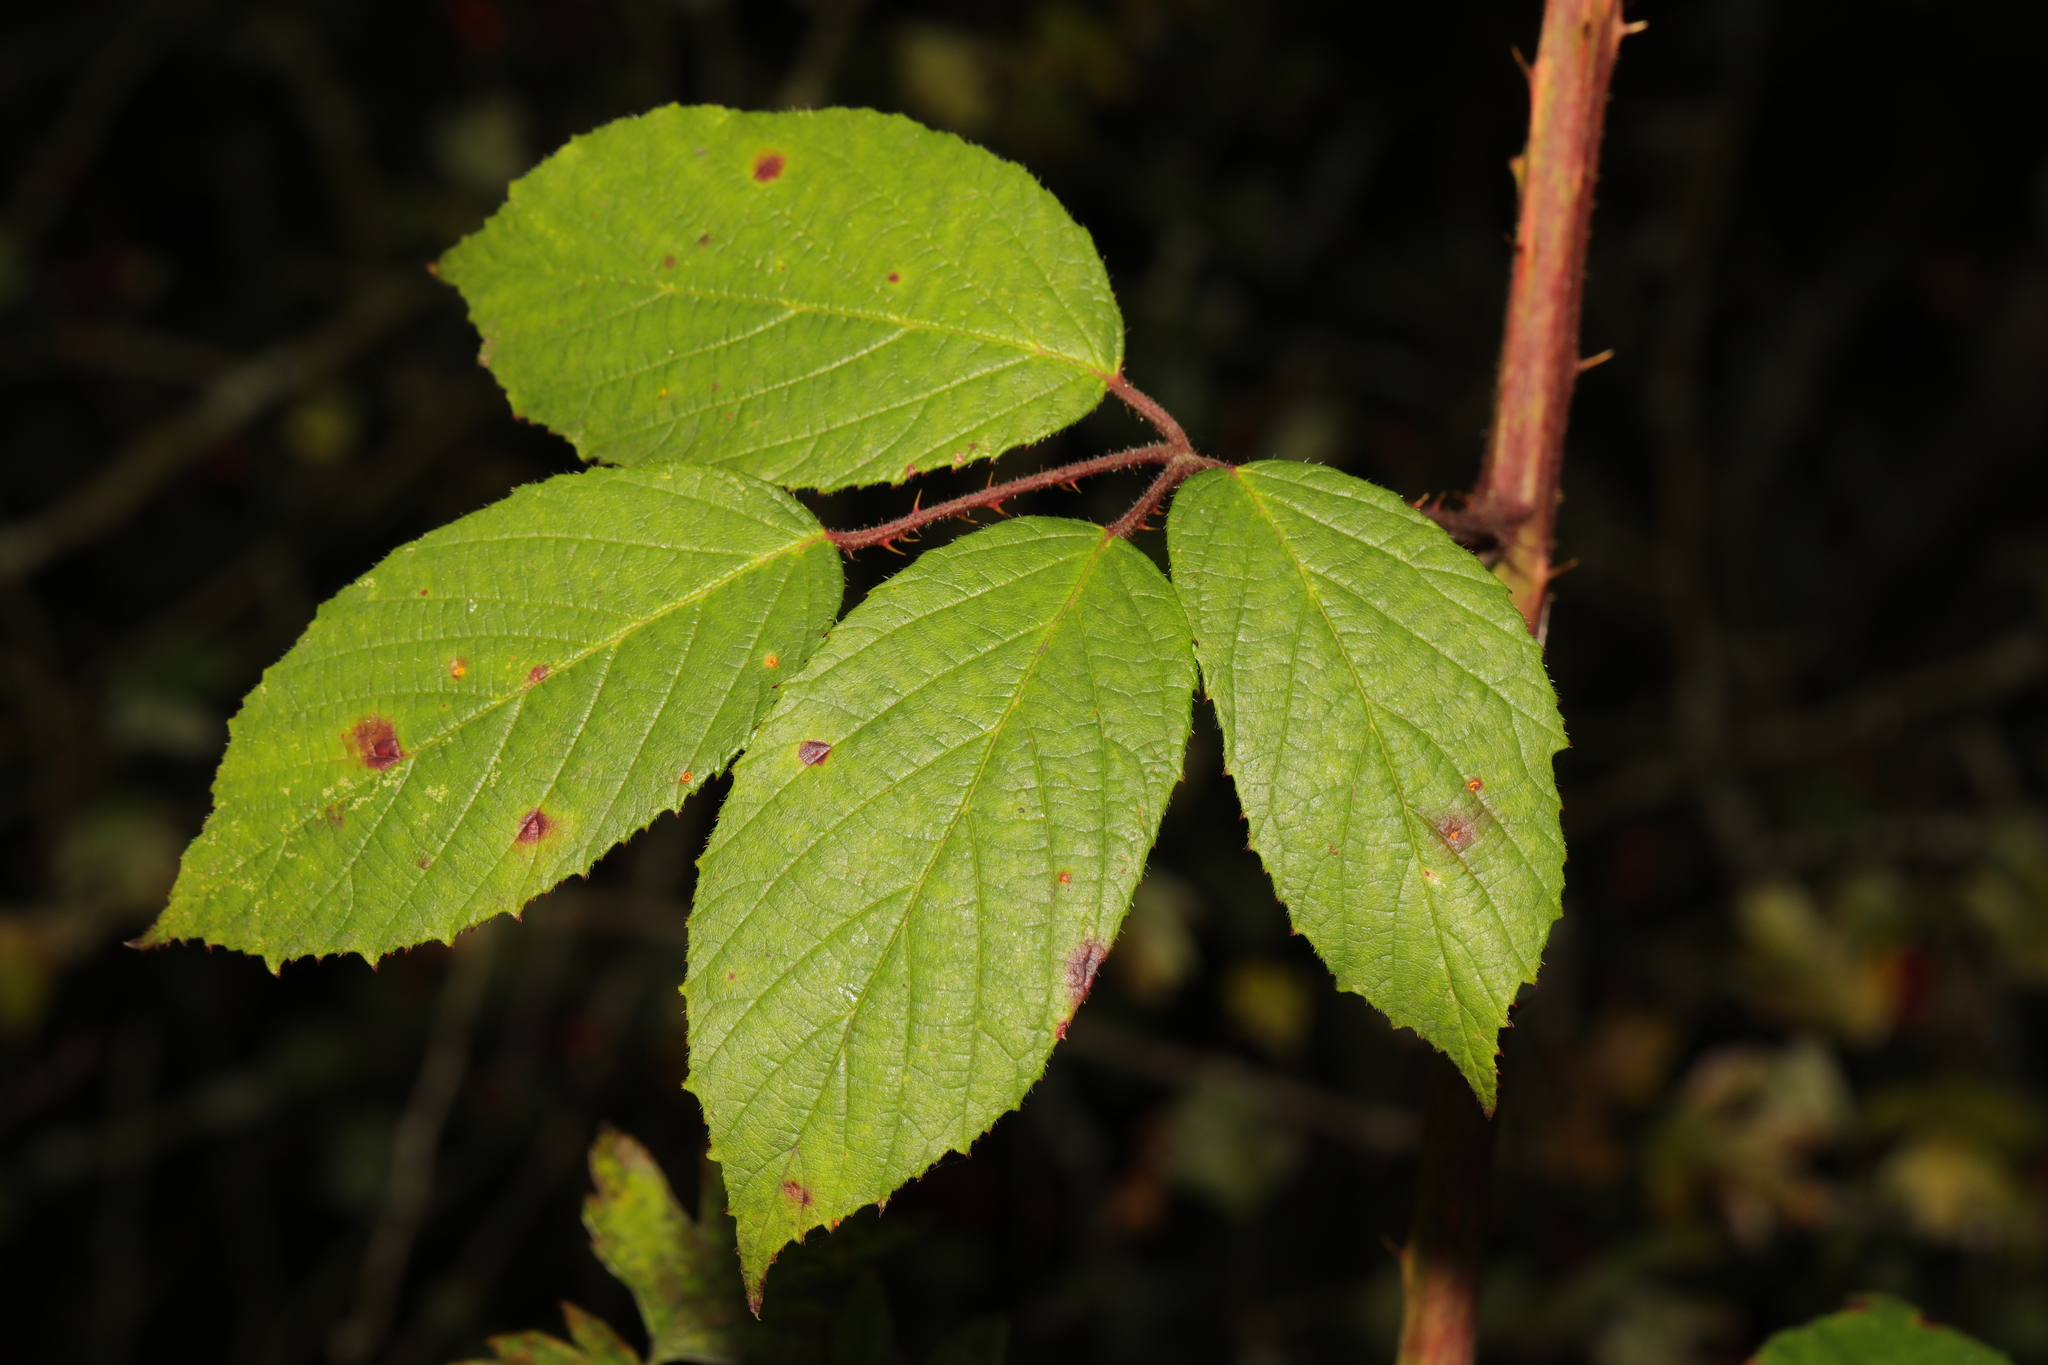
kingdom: Plantae
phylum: Tracheophyta
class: Magnoliopsida
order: Rosales
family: Rosaceae
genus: Rubus
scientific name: Rubus rufescens
